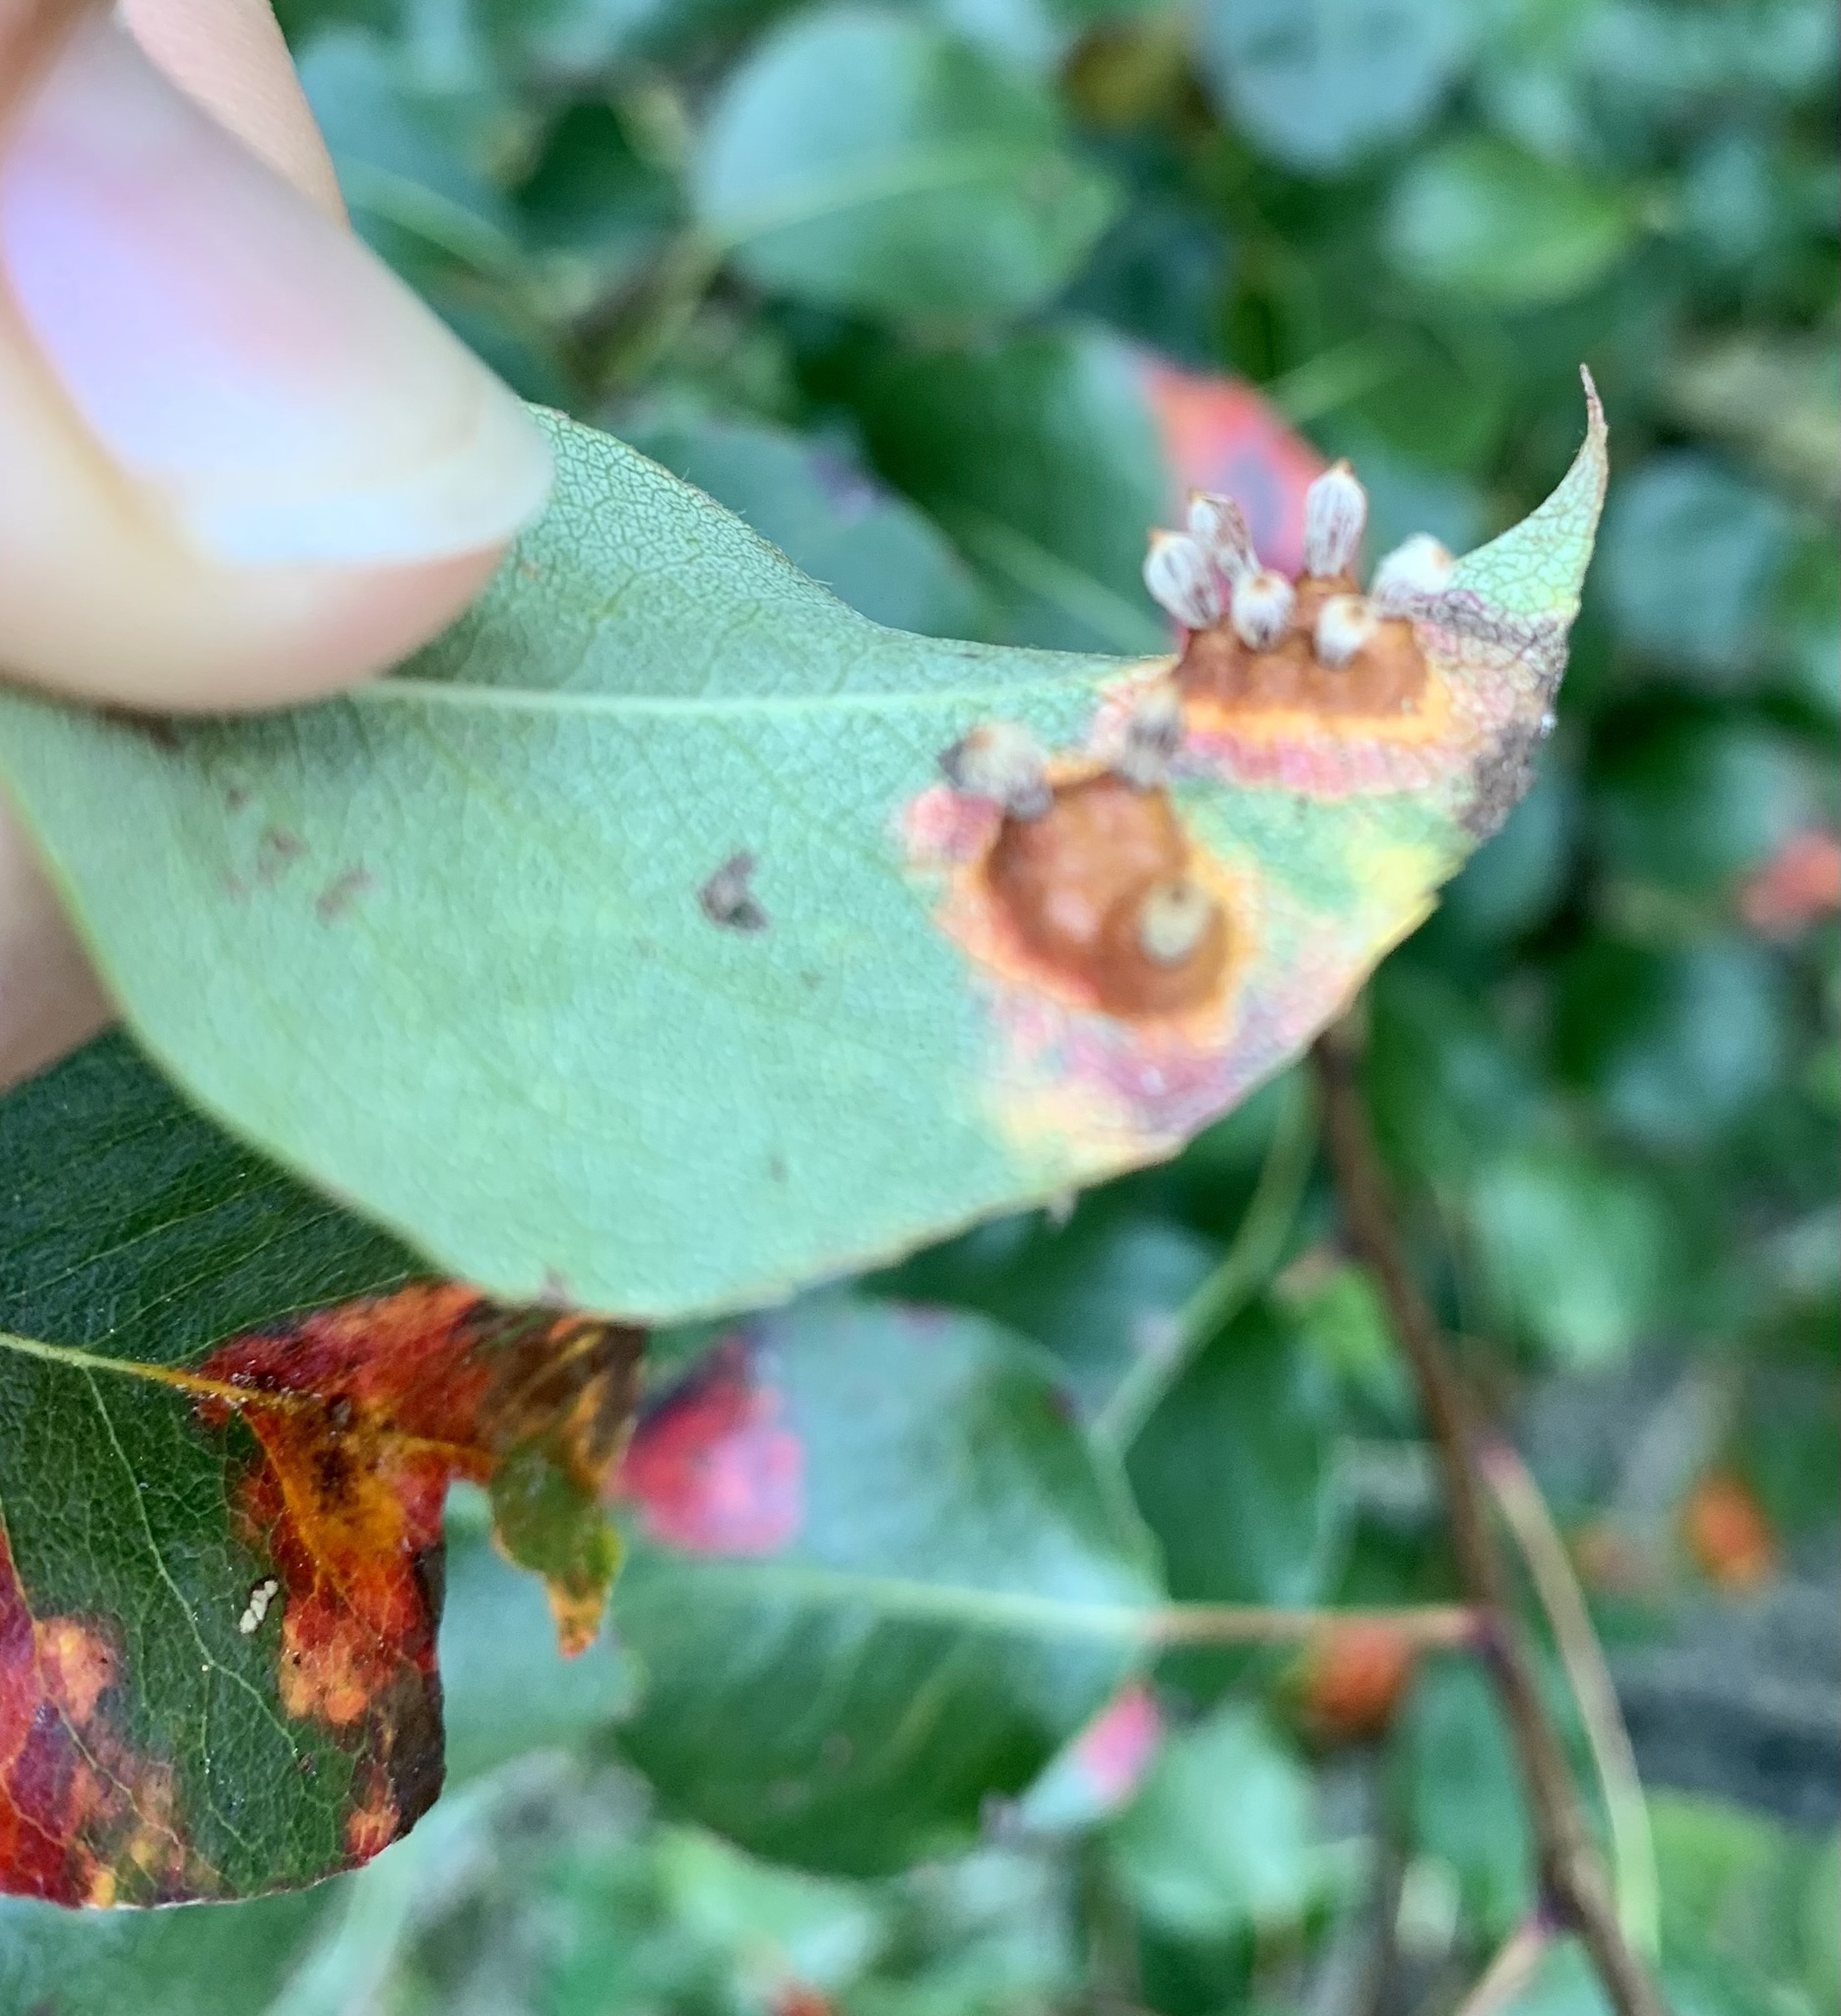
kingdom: Fungi
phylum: Basidiomycota
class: Pucciniomycetes
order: Pucciniales
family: Gymnosporangiaceae
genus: Gymnosporangium
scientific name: Gymnosporangium sabinae
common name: Pear trellis rust fungus
